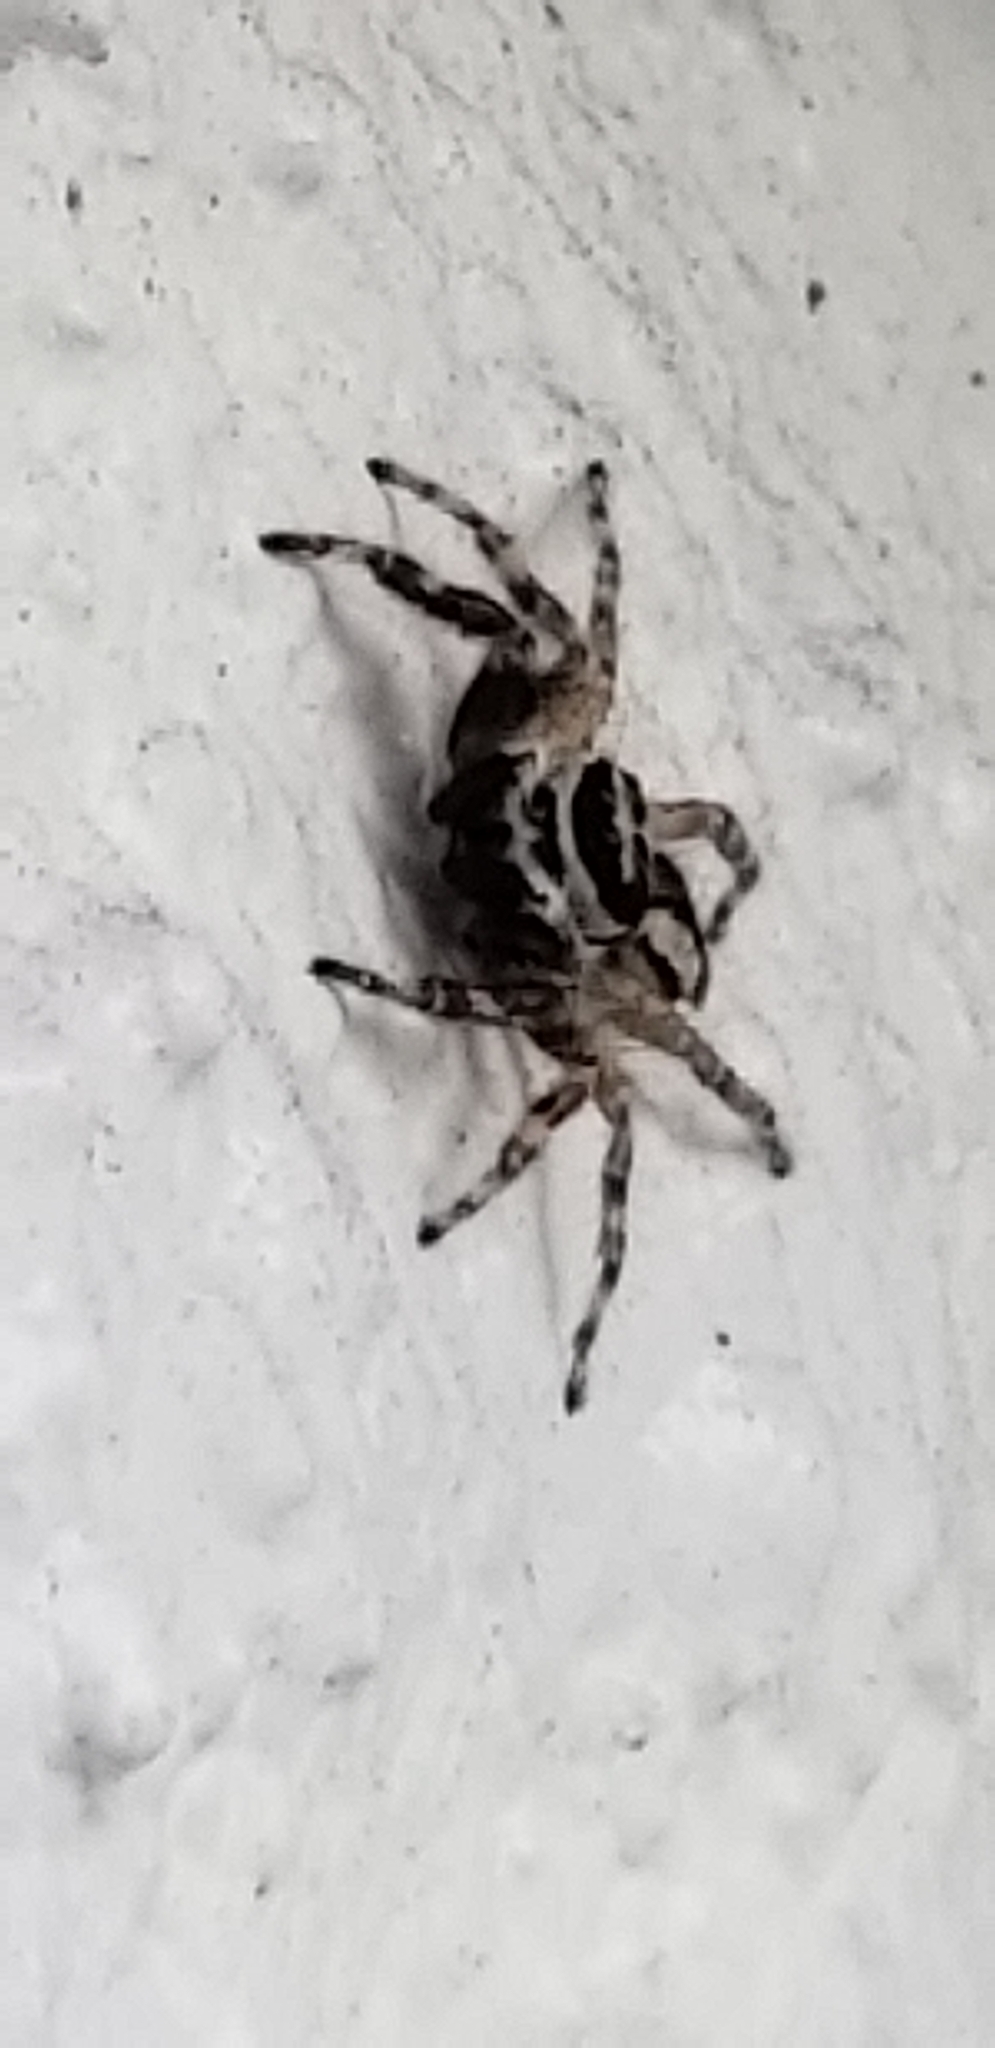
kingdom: Animalia
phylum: Arthropoda
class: Arachnida
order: Araneae
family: Salticidae
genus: Menemerus
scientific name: Menemerus bivittatus
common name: Gray wall jumper
